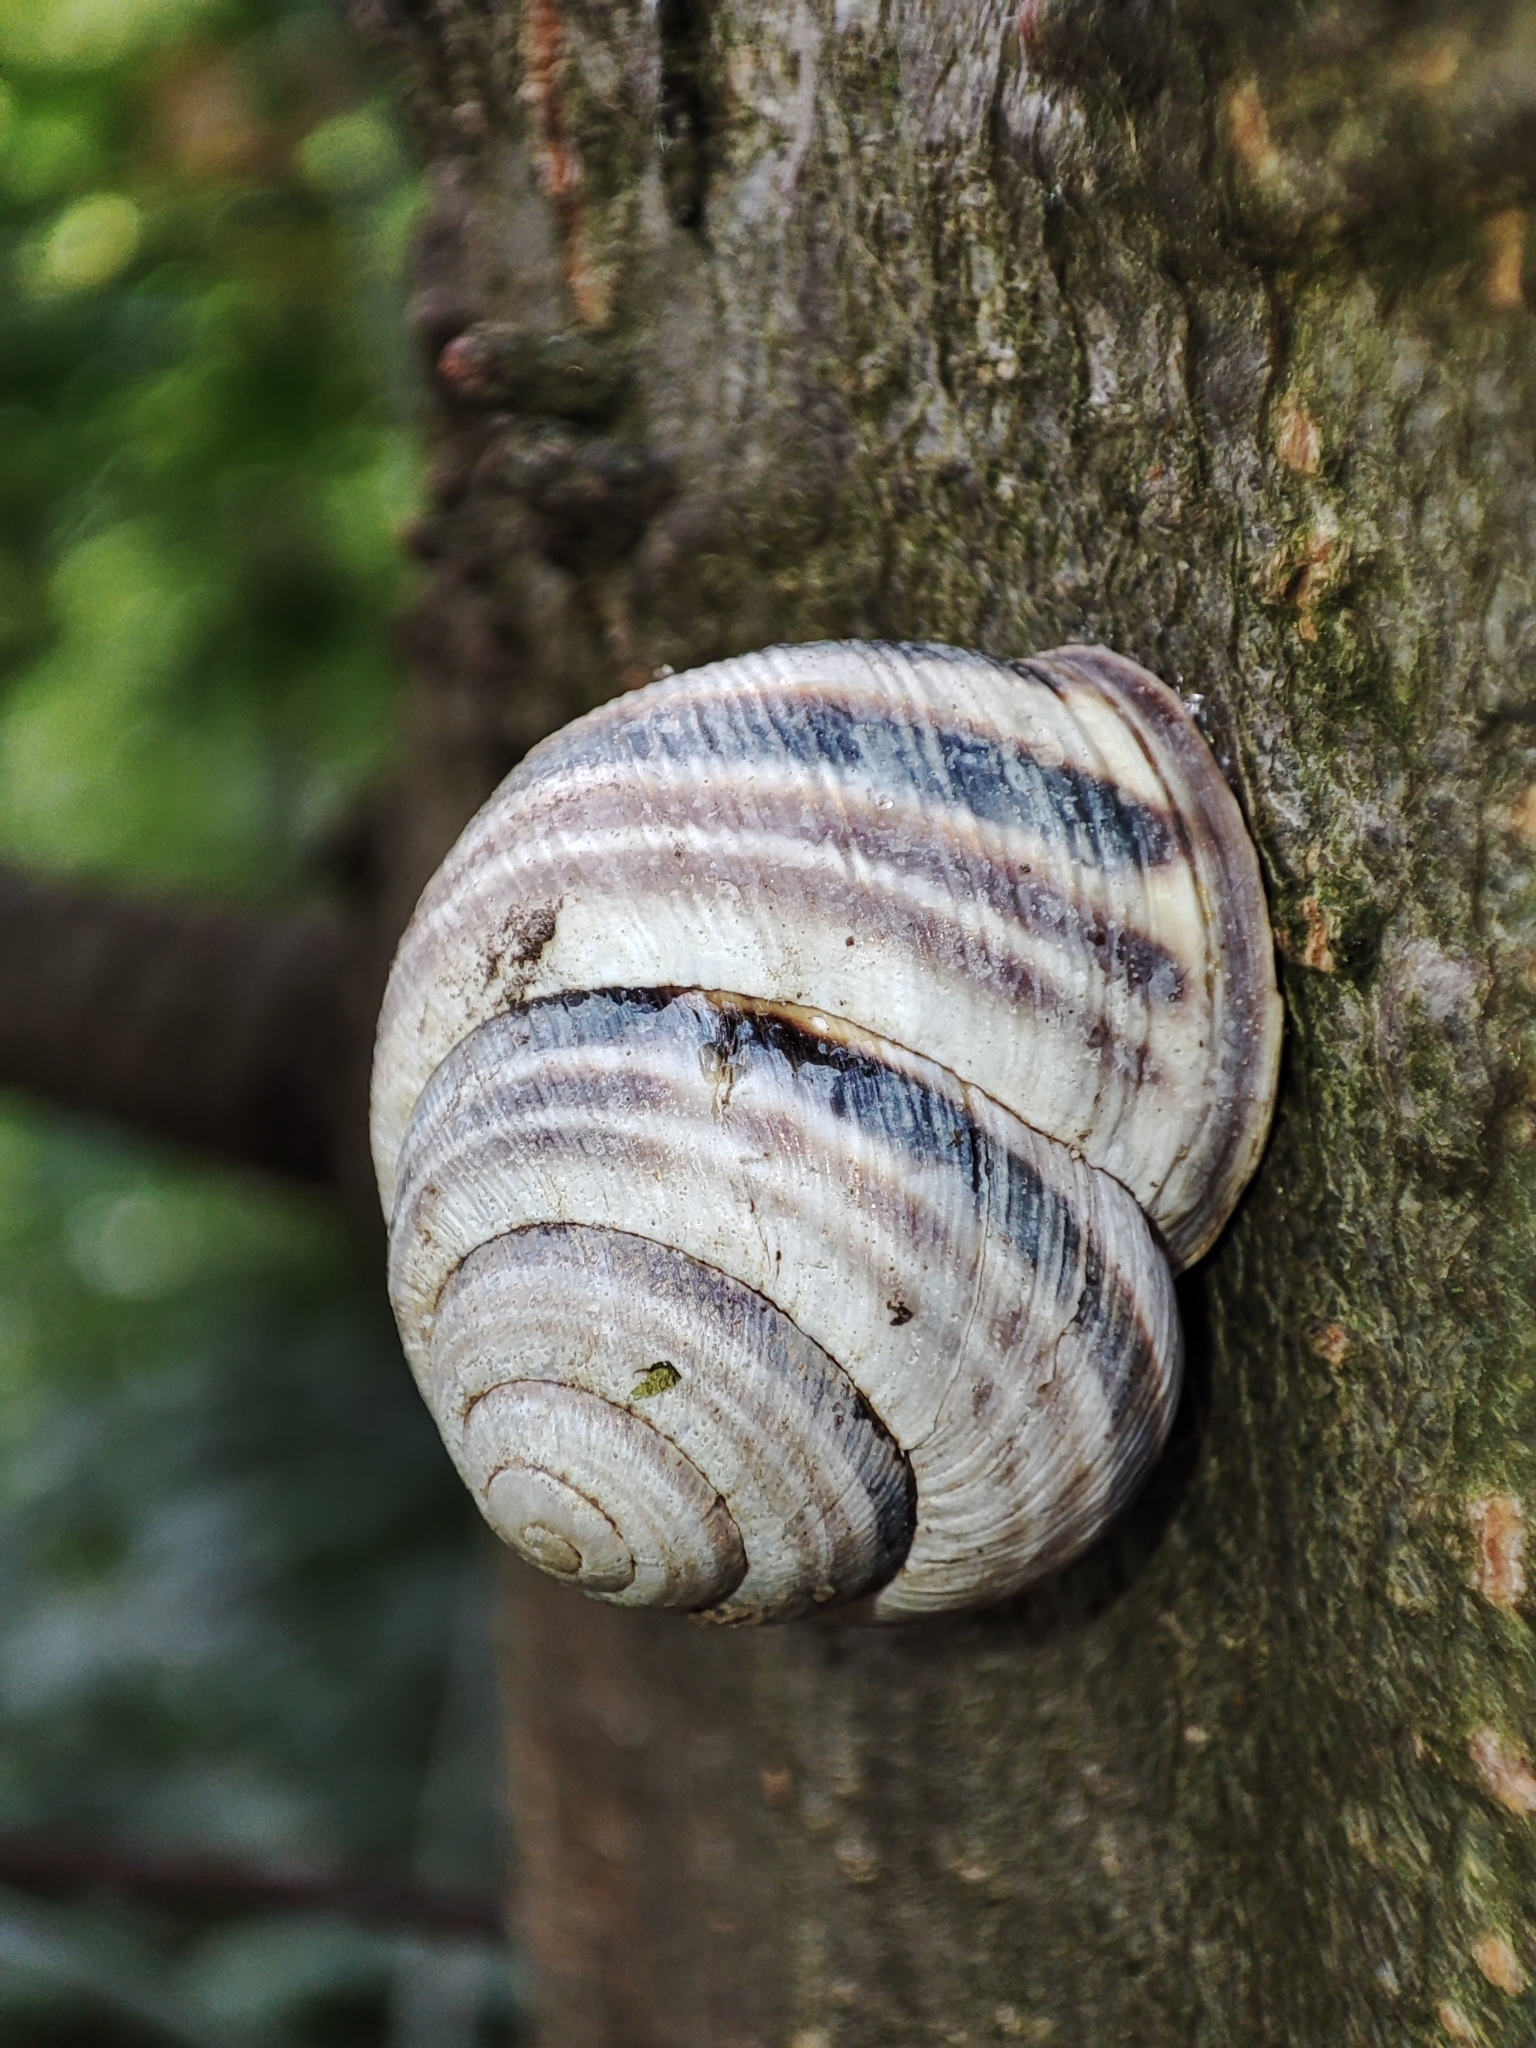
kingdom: Animalia
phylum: Mollusca
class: Gastropoda
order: Stylommatophora
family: Helicidae
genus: Caucasotachea
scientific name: Caucasotachea vindobonensis
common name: European helicid land snail
